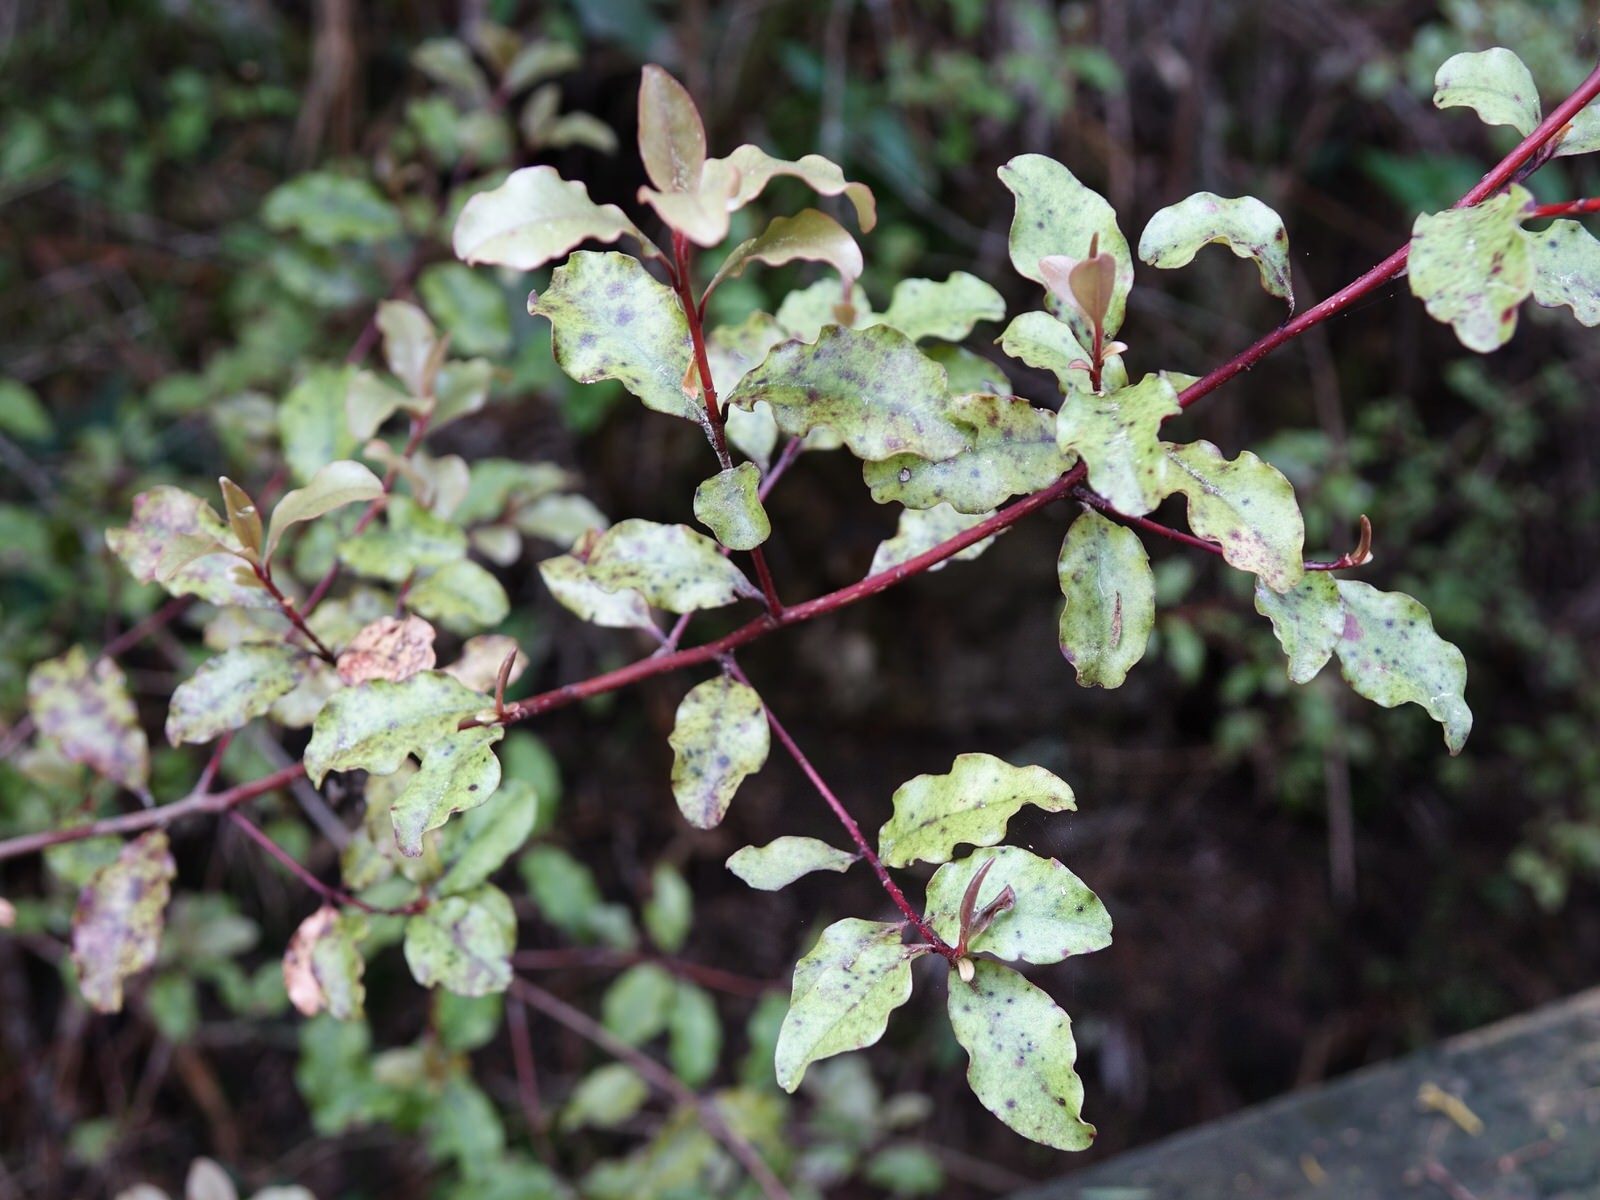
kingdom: Plantae
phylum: Tracheophyta
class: Magnoliopsida
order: Ericales
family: Primulaceae
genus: Myrsine
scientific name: Myrsine australis
